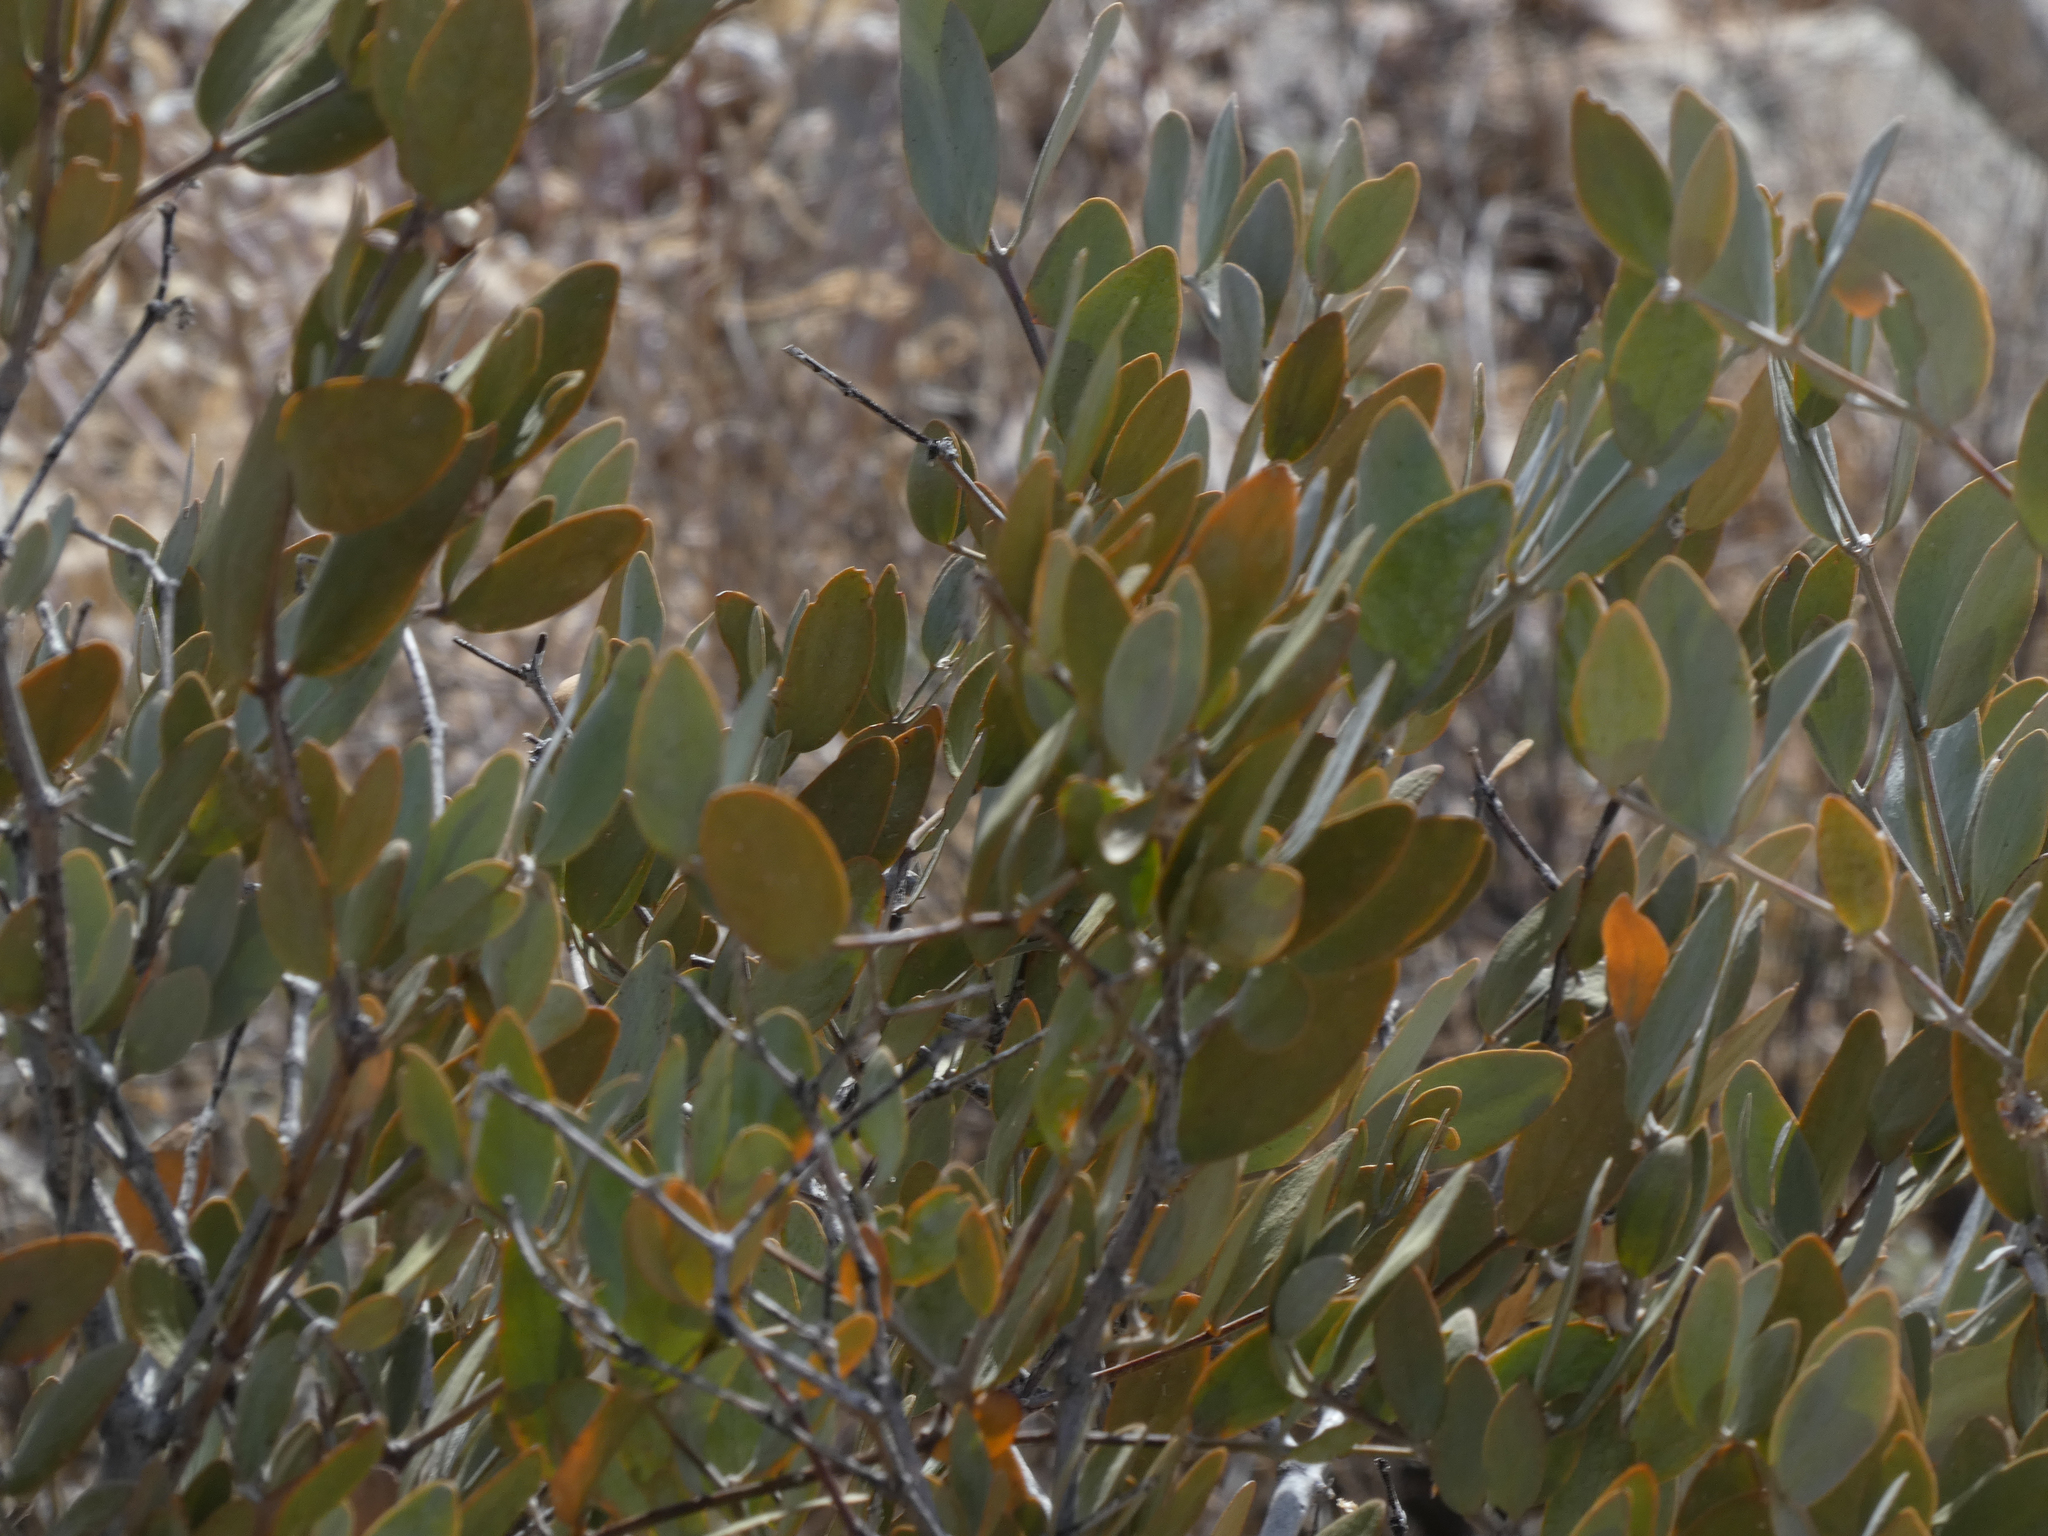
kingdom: Plantae
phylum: Tracheophyta
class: Magnoliopsida
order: Caryophyllales
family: Simmondsiaceae
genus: Simmondsia
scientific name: Simmondsia chinensis
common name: Jojoba
